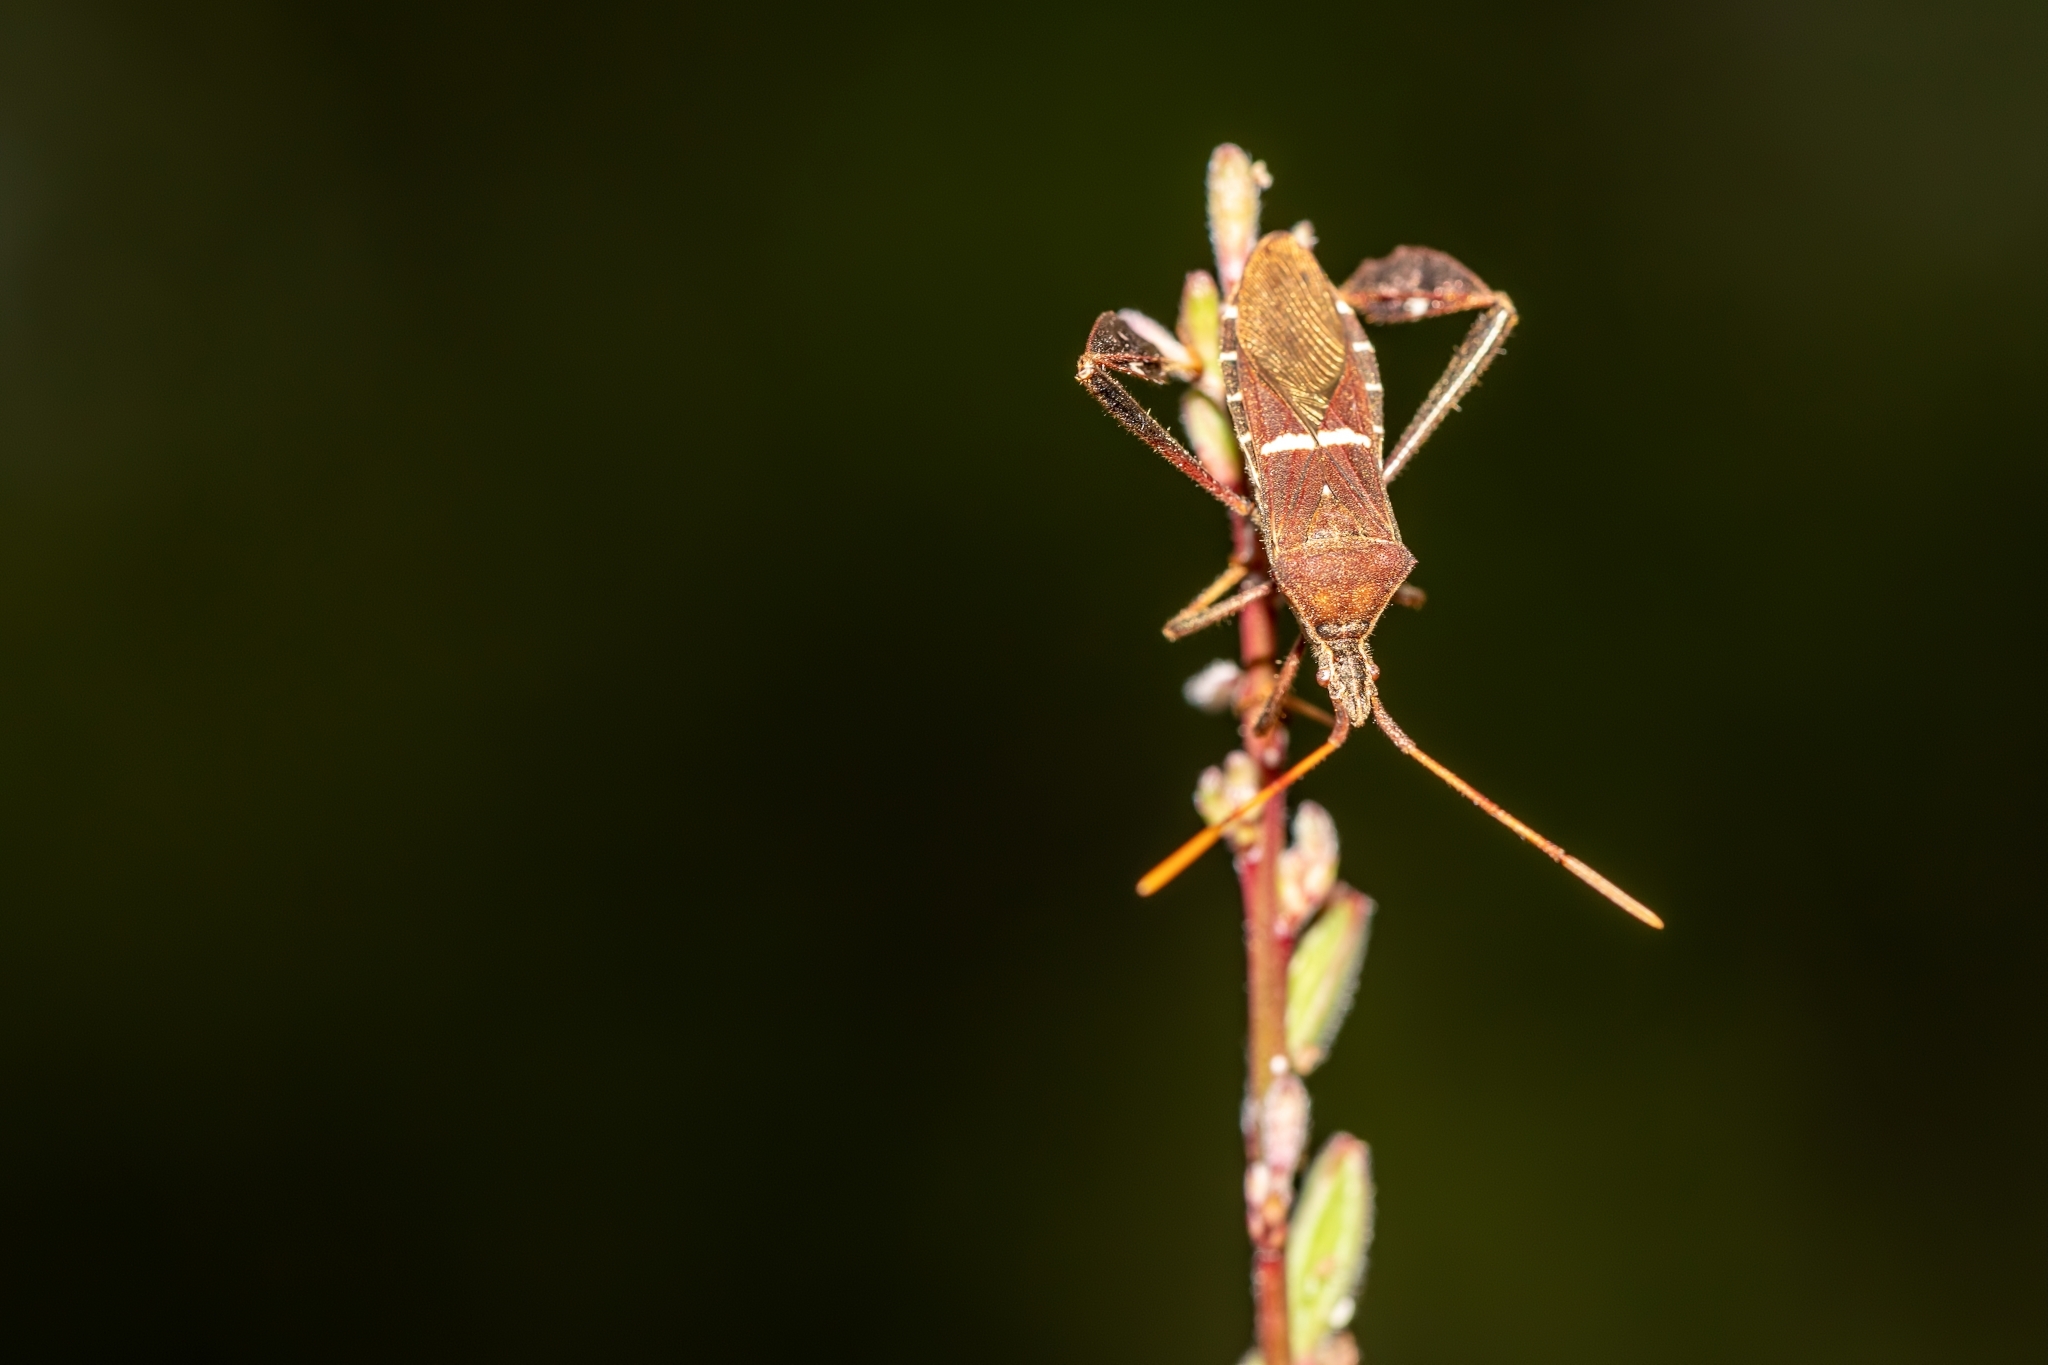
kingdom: Animalia
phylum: Arthropoda
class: Insecta
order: Hemiptera
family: Coreidae
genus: Leptoglossus
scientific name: Leptoglossus phyllopus
